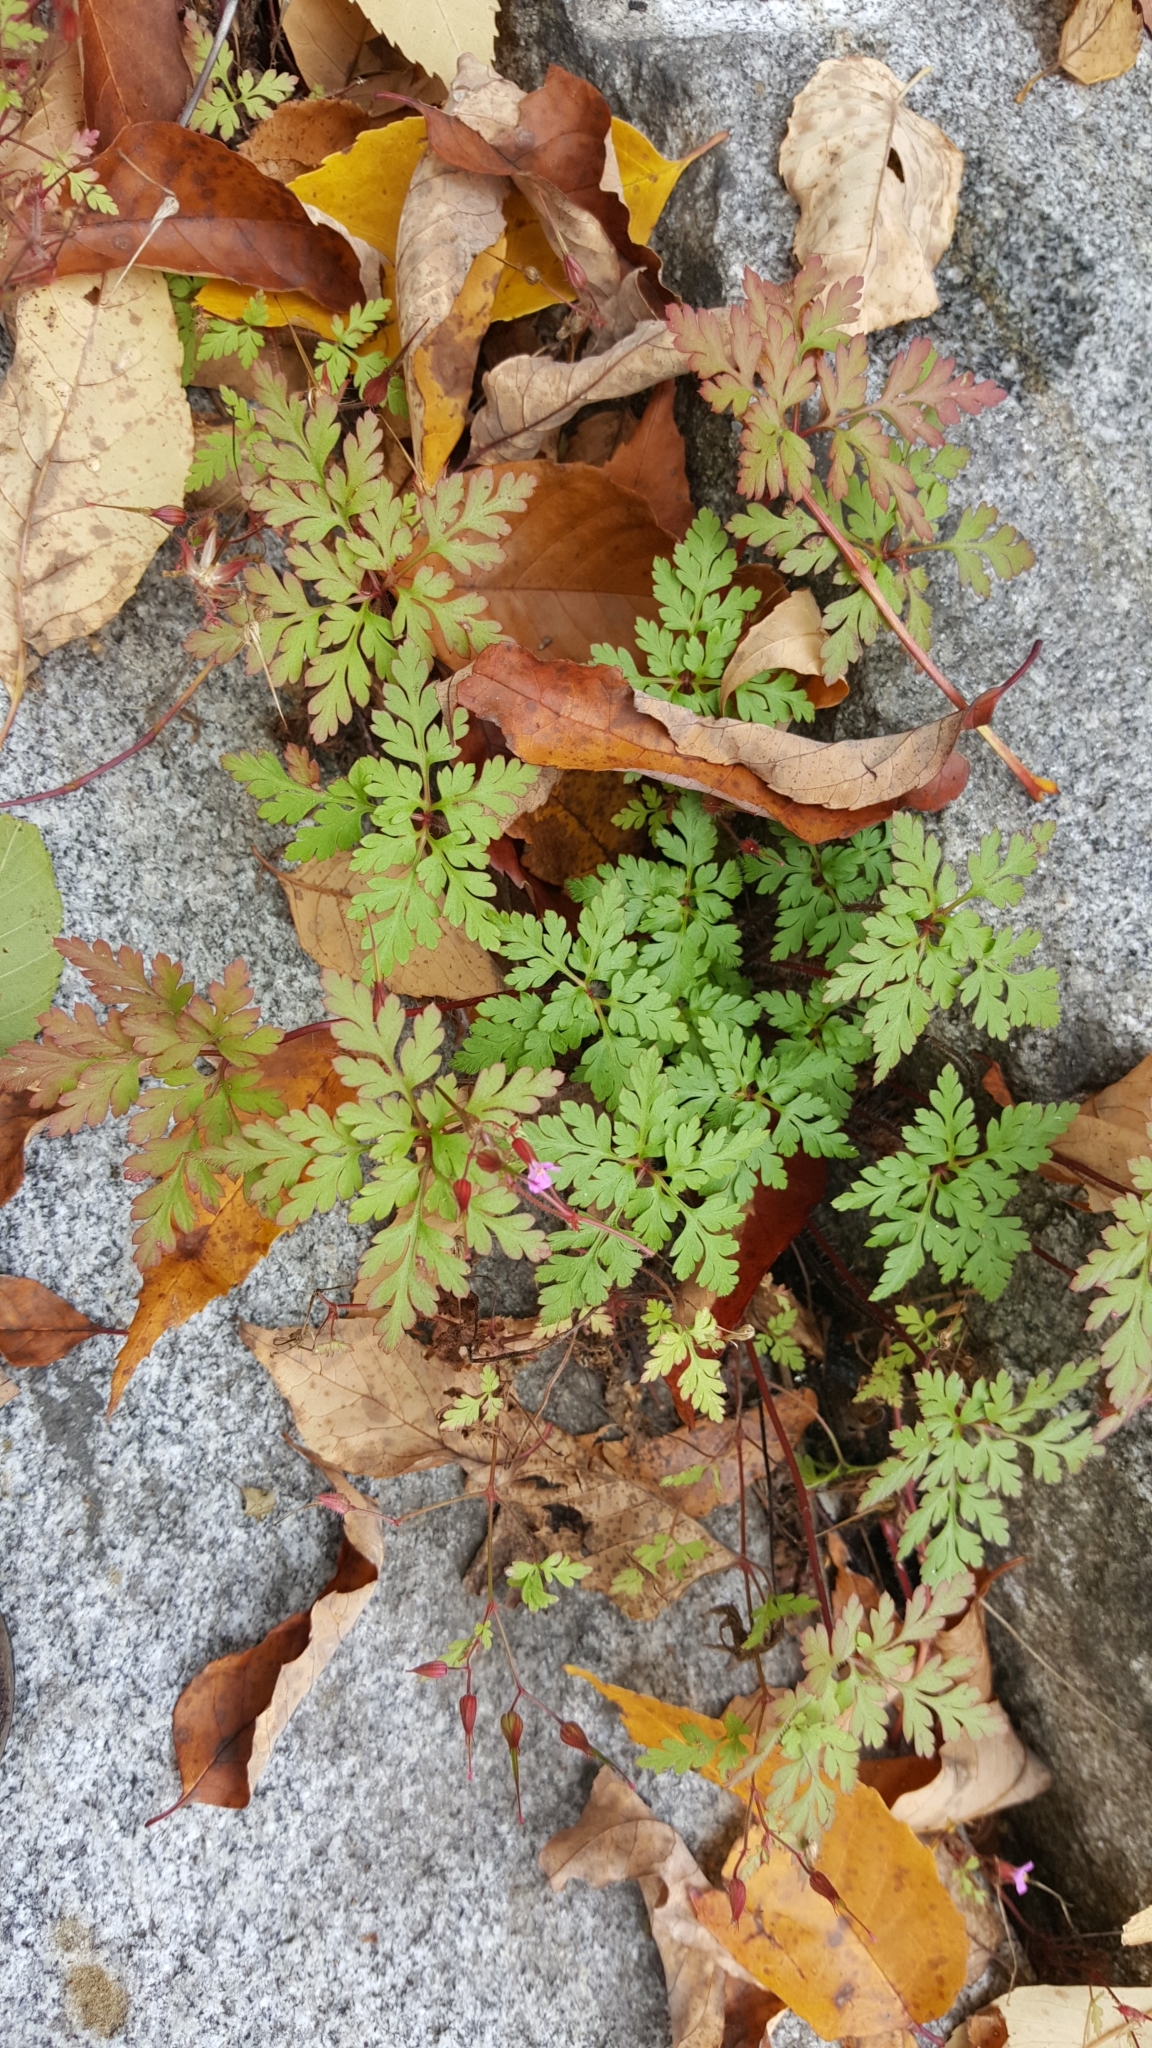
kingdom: Plantae
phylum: Tracheophyta
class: Magnoliopsida
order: Geraniales
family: Geraniaceae
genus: Geranium
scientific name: Geranium robertianum
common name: Herb-robert
